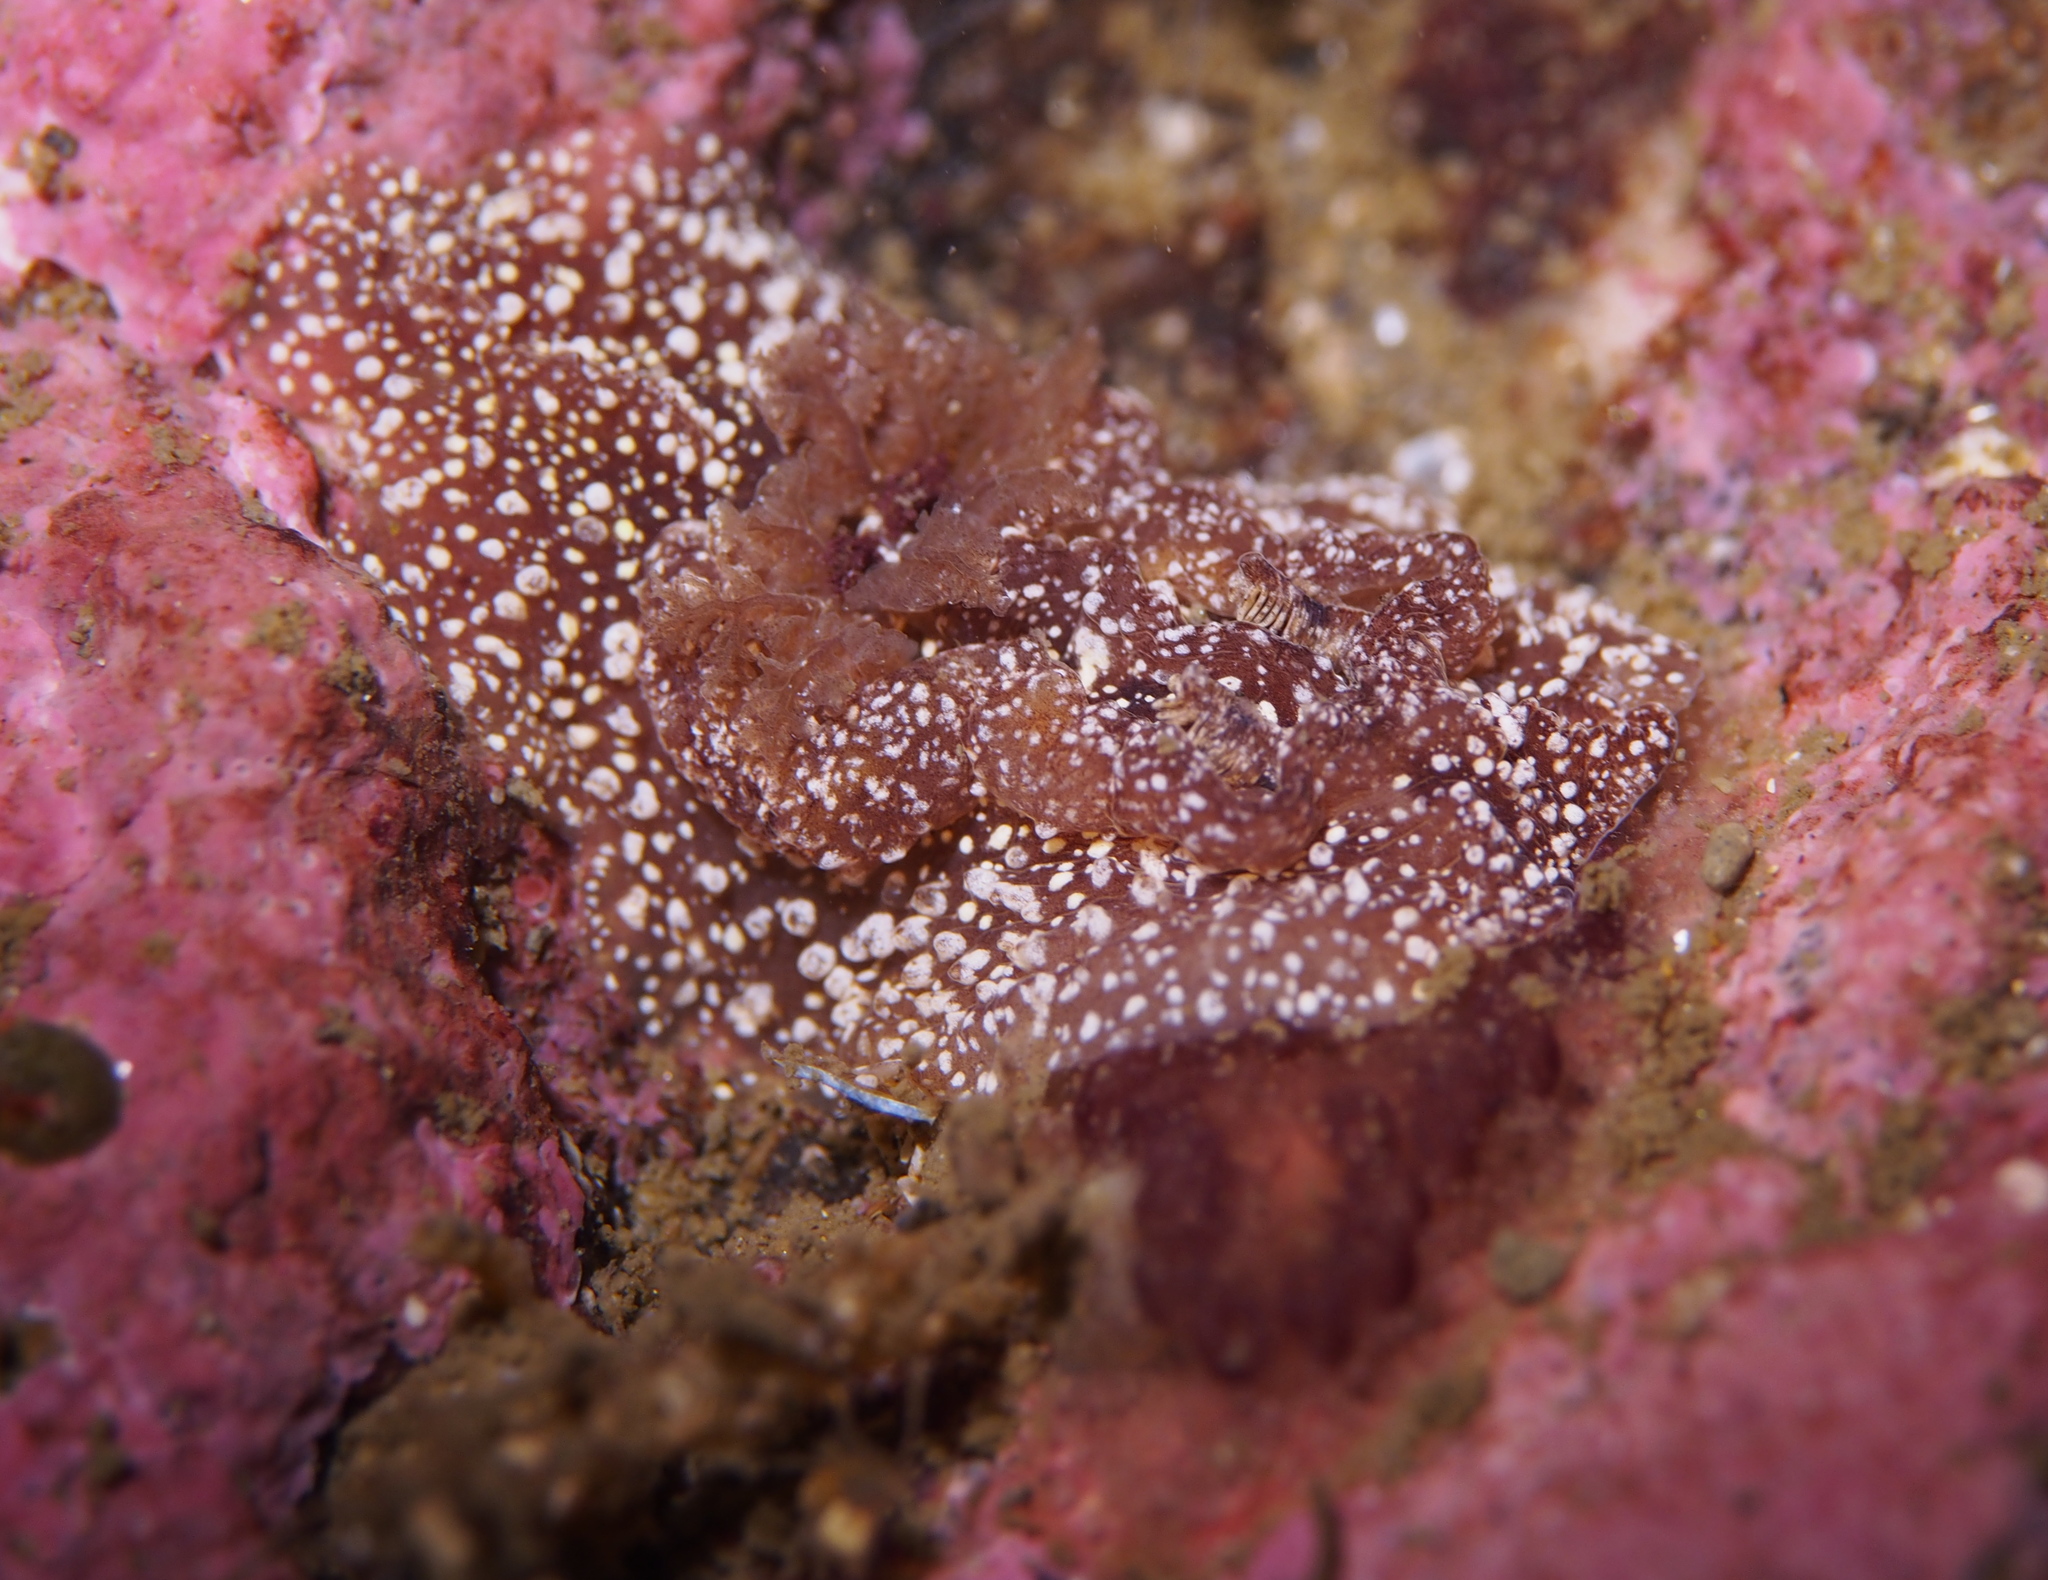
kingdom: Animalia
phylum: Mollusca
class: Gastropoda
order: Nudibranchia
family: Goniodorididae
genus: Pelagella
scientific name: Pelagella castanea
